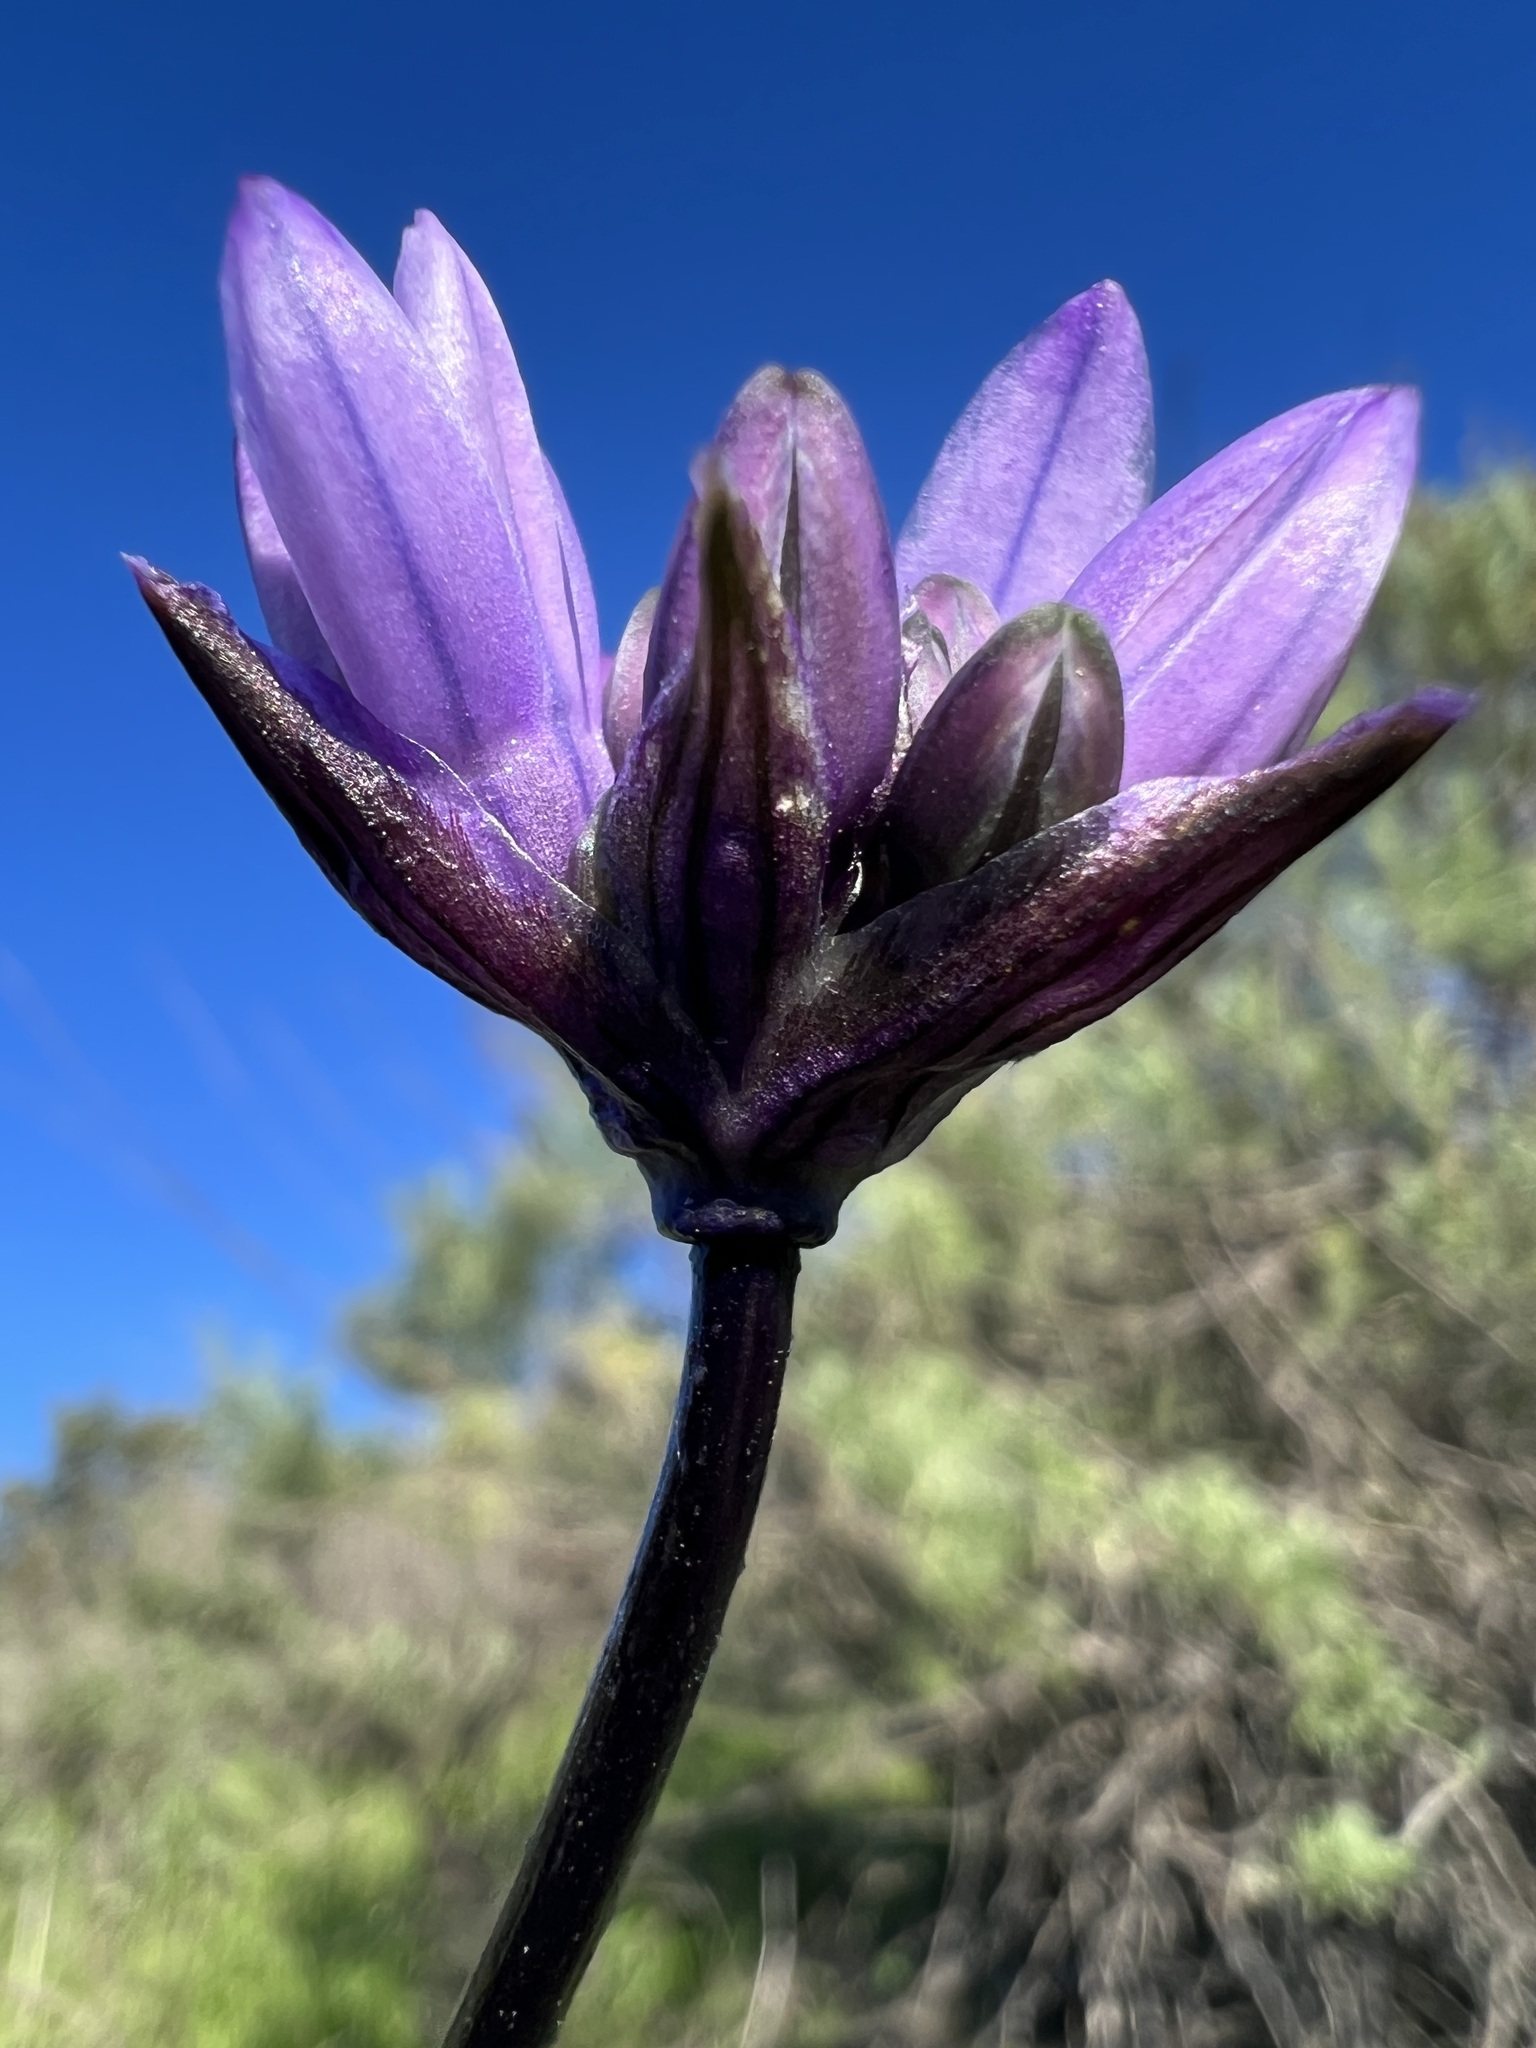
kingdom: Plantae
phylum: Tracheophyta
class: Liliopsida
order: Asparagales
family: Asparagaceae
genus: Dipterostemon
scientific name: Dipterostemon capitatus
